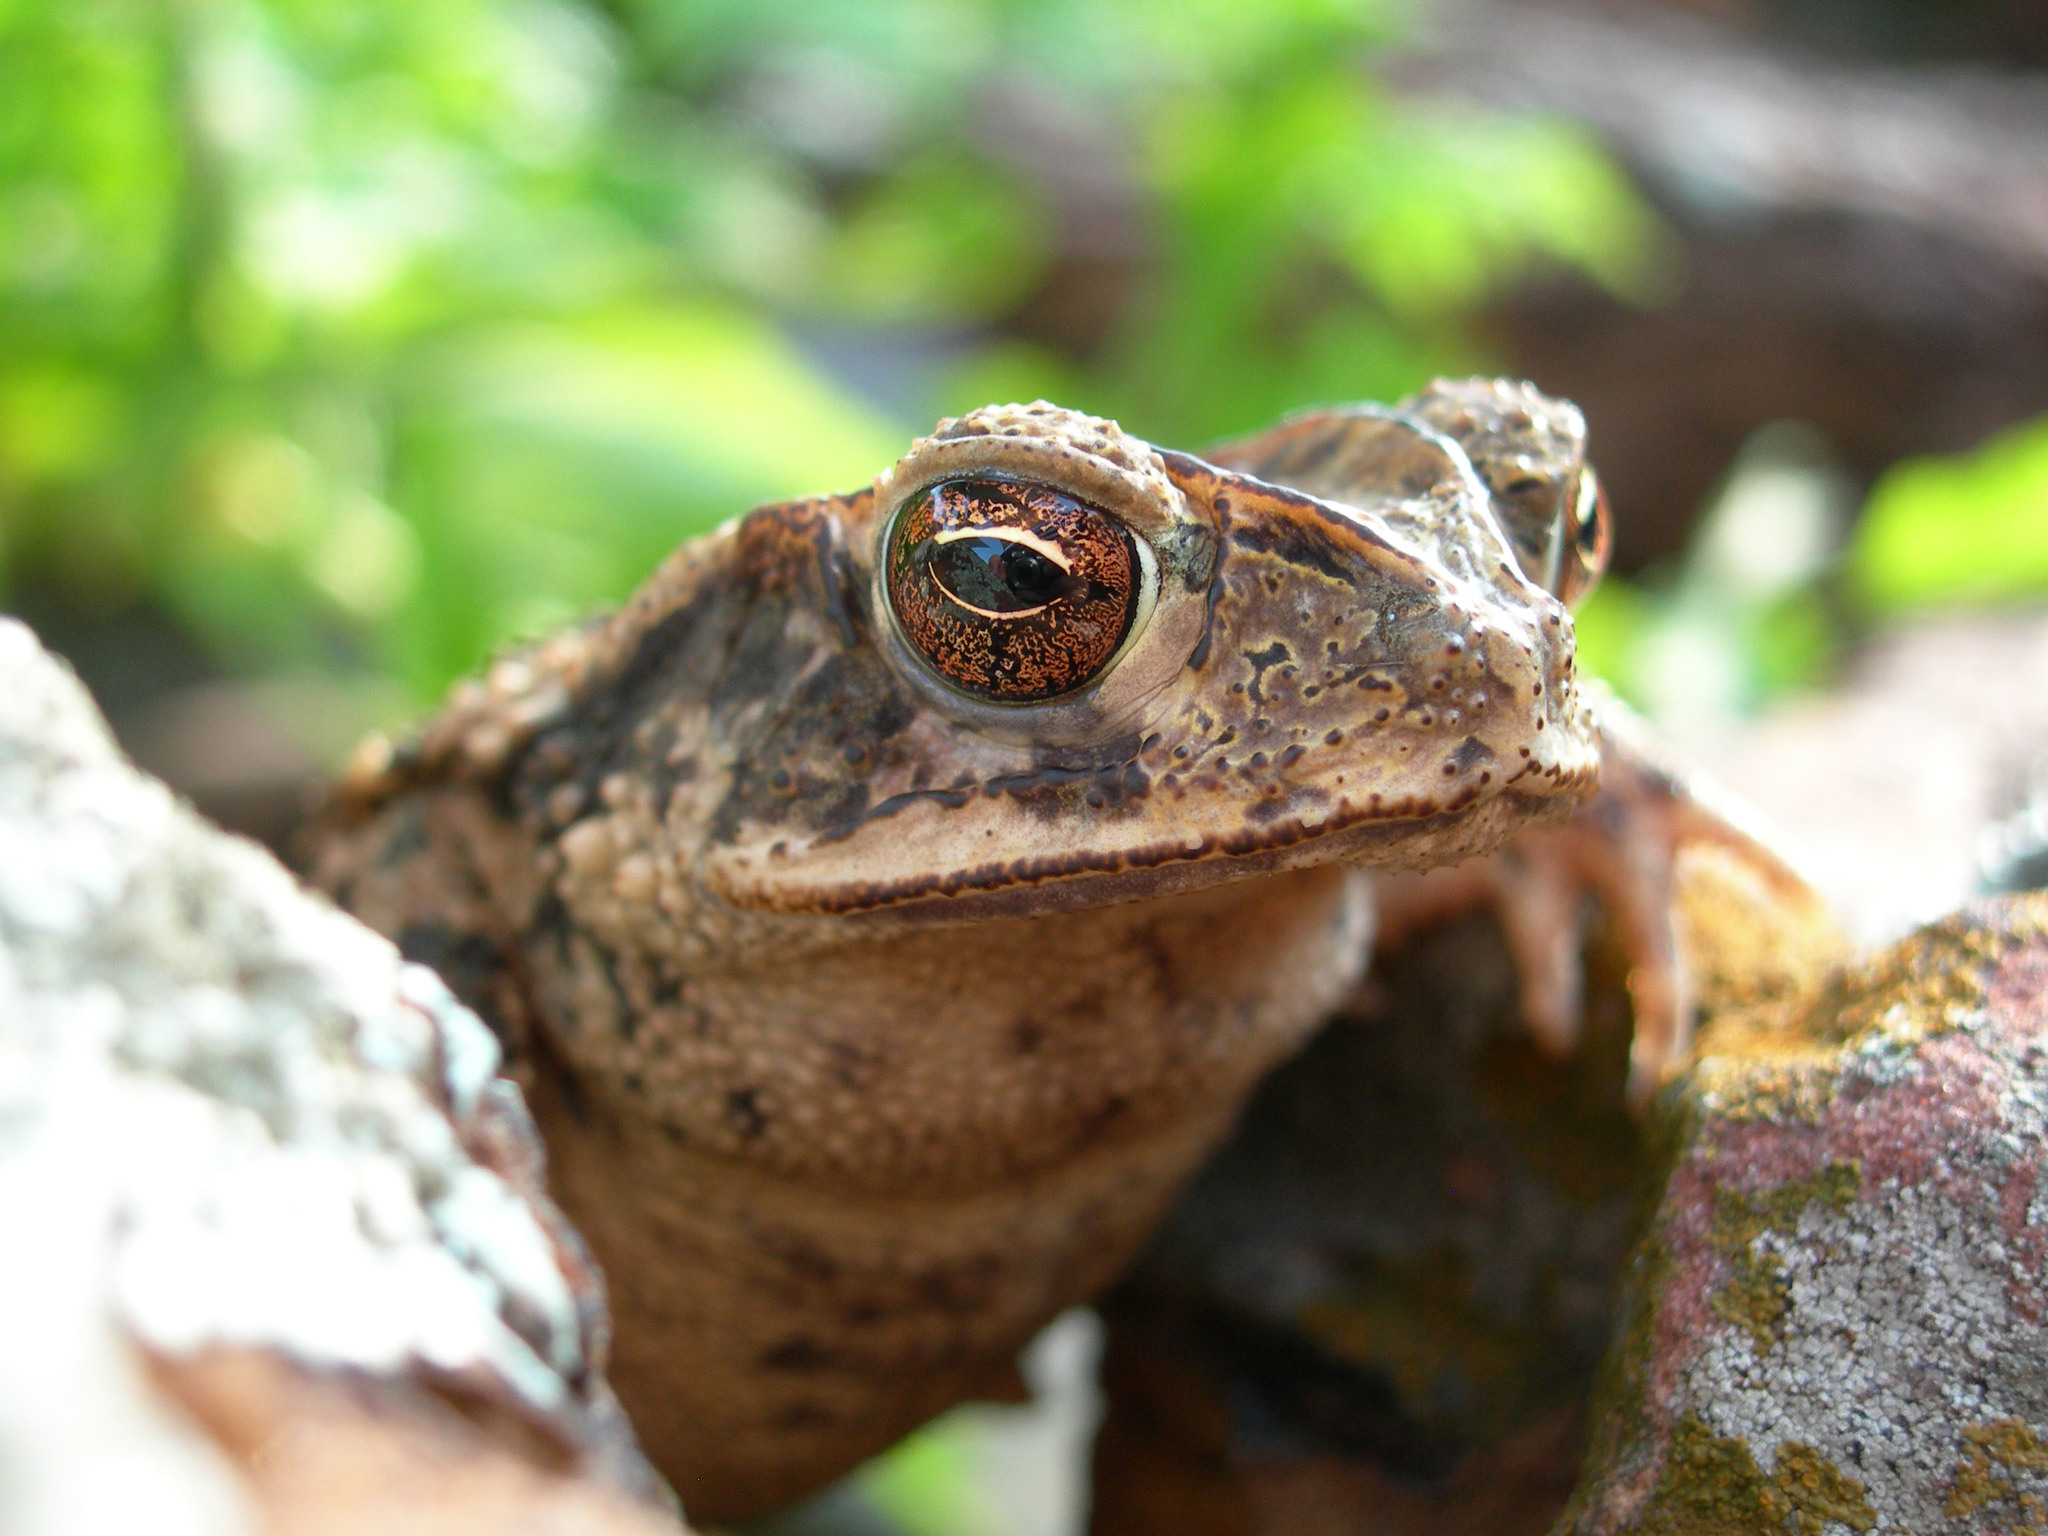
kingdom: Animalia
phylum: Chordata
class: Amphibia
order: Anura
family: Bufonidae
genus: Incilius
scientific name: Incilius nebulifer
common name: Gulf coast toad
